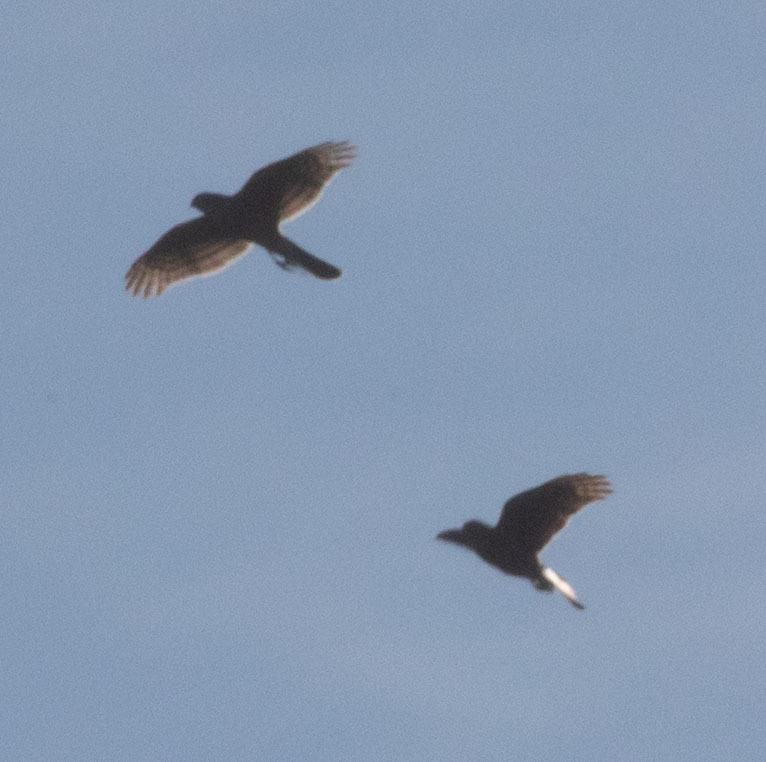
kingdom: Animalia
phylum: Chordata
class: Aves
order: Accipitriformes
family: Accipitridae
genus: Accipiter
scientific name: Accipiter striatus
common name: Sharp-shinned hawk
